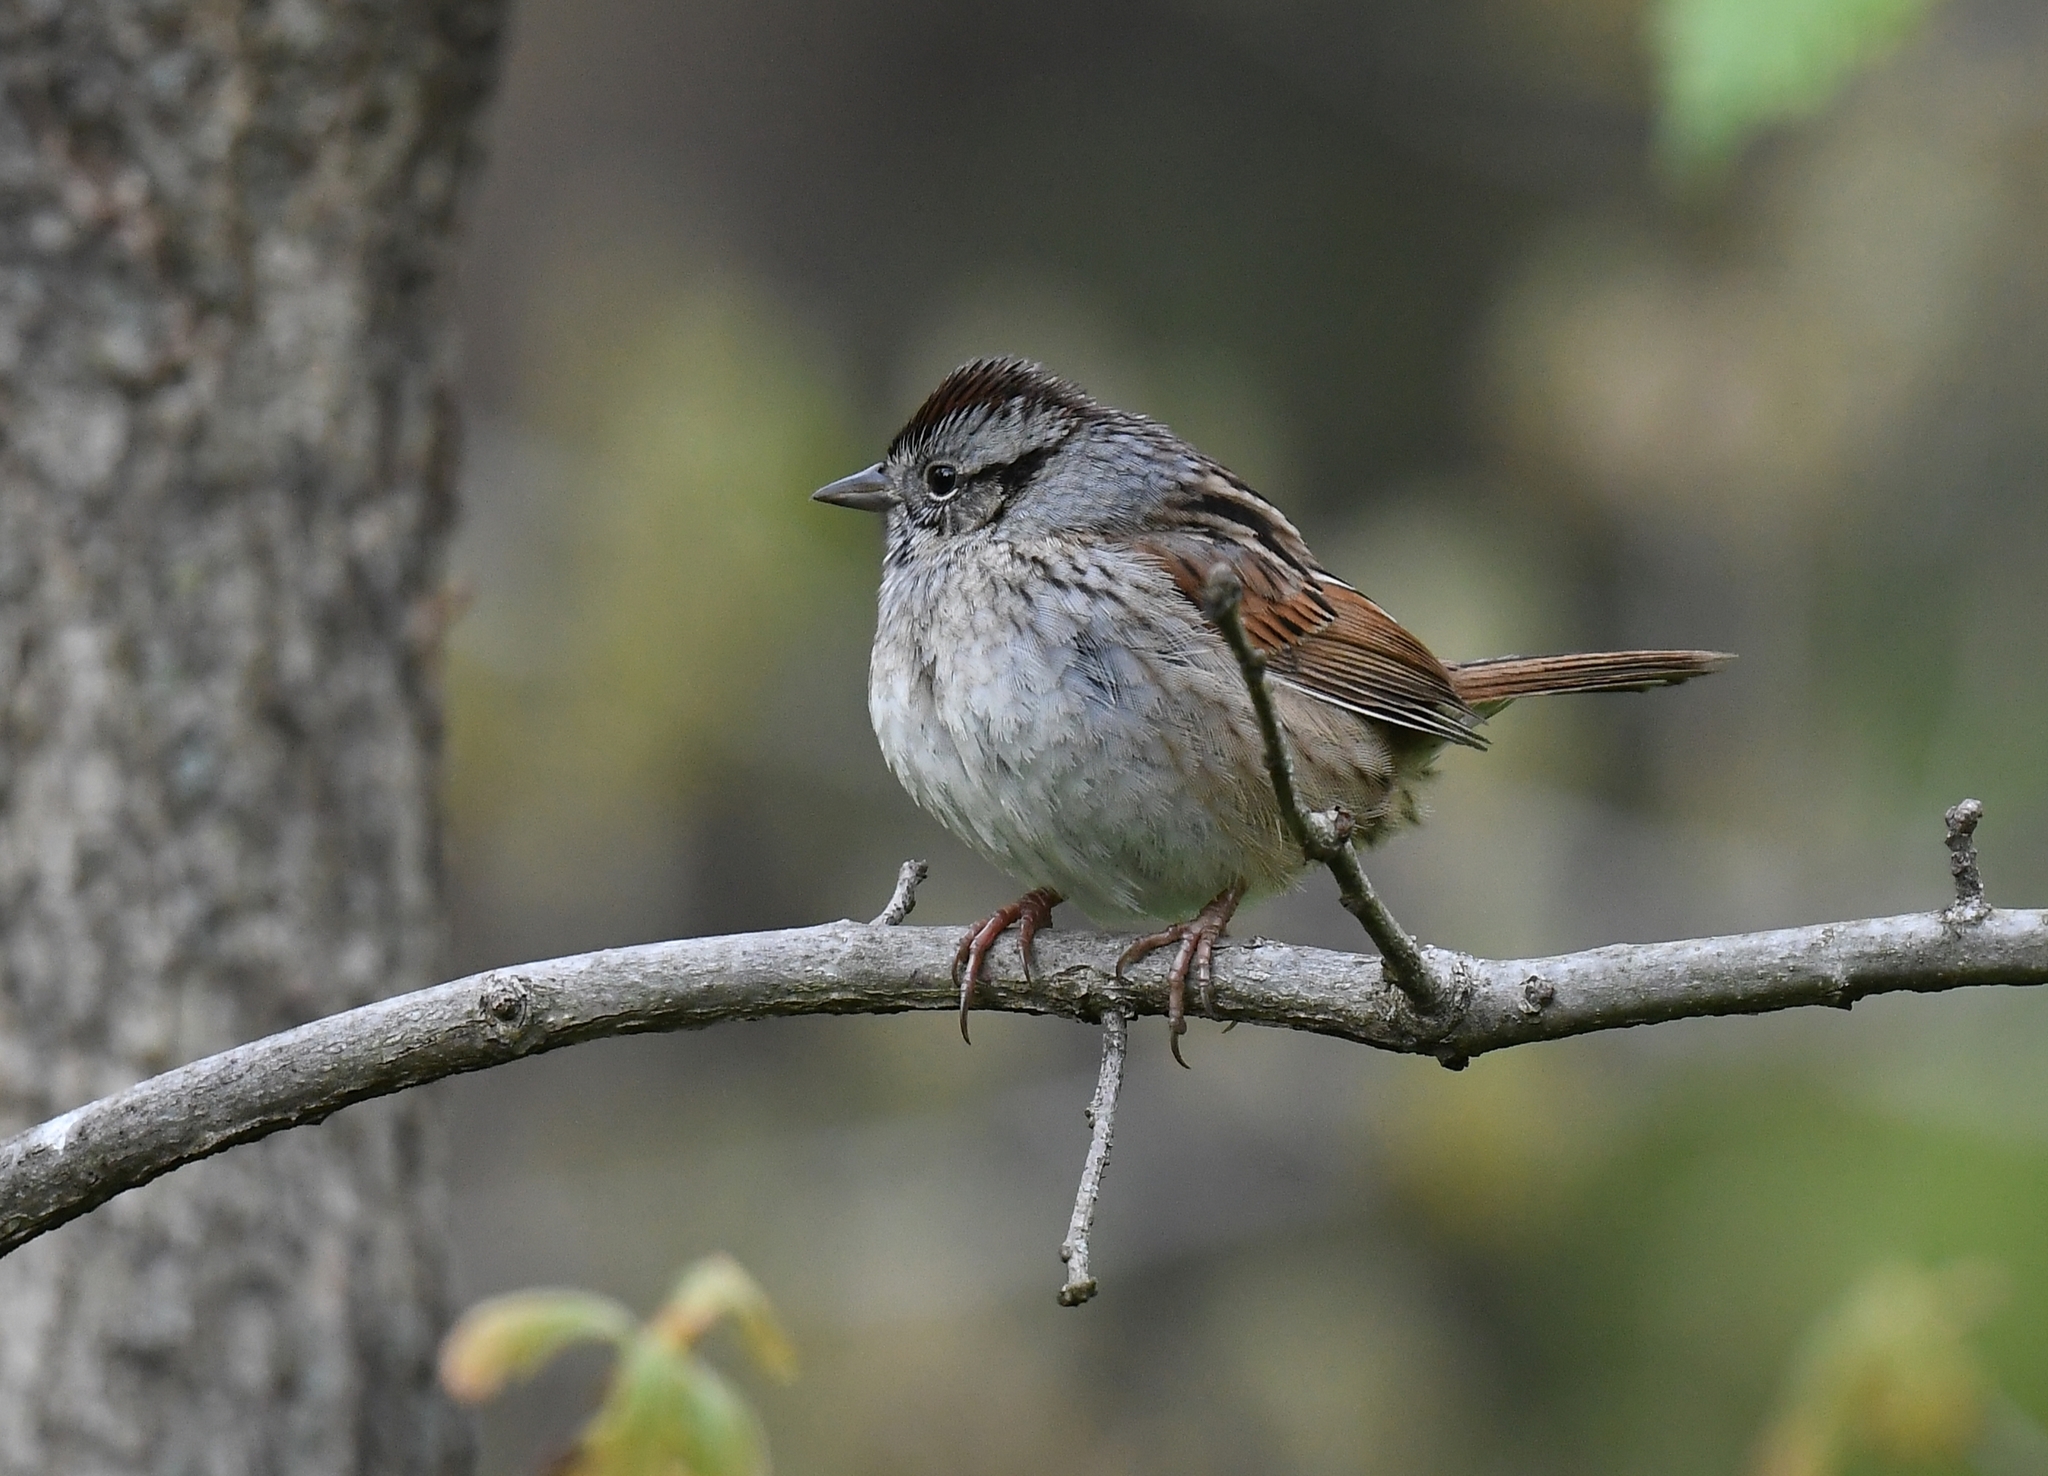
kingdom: Animalia
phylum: Chordata
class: Aves
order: Passeriformes
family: Passerellidae
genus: Melospiza
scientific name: Melospiza georgiana
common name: Swamp sparrow
